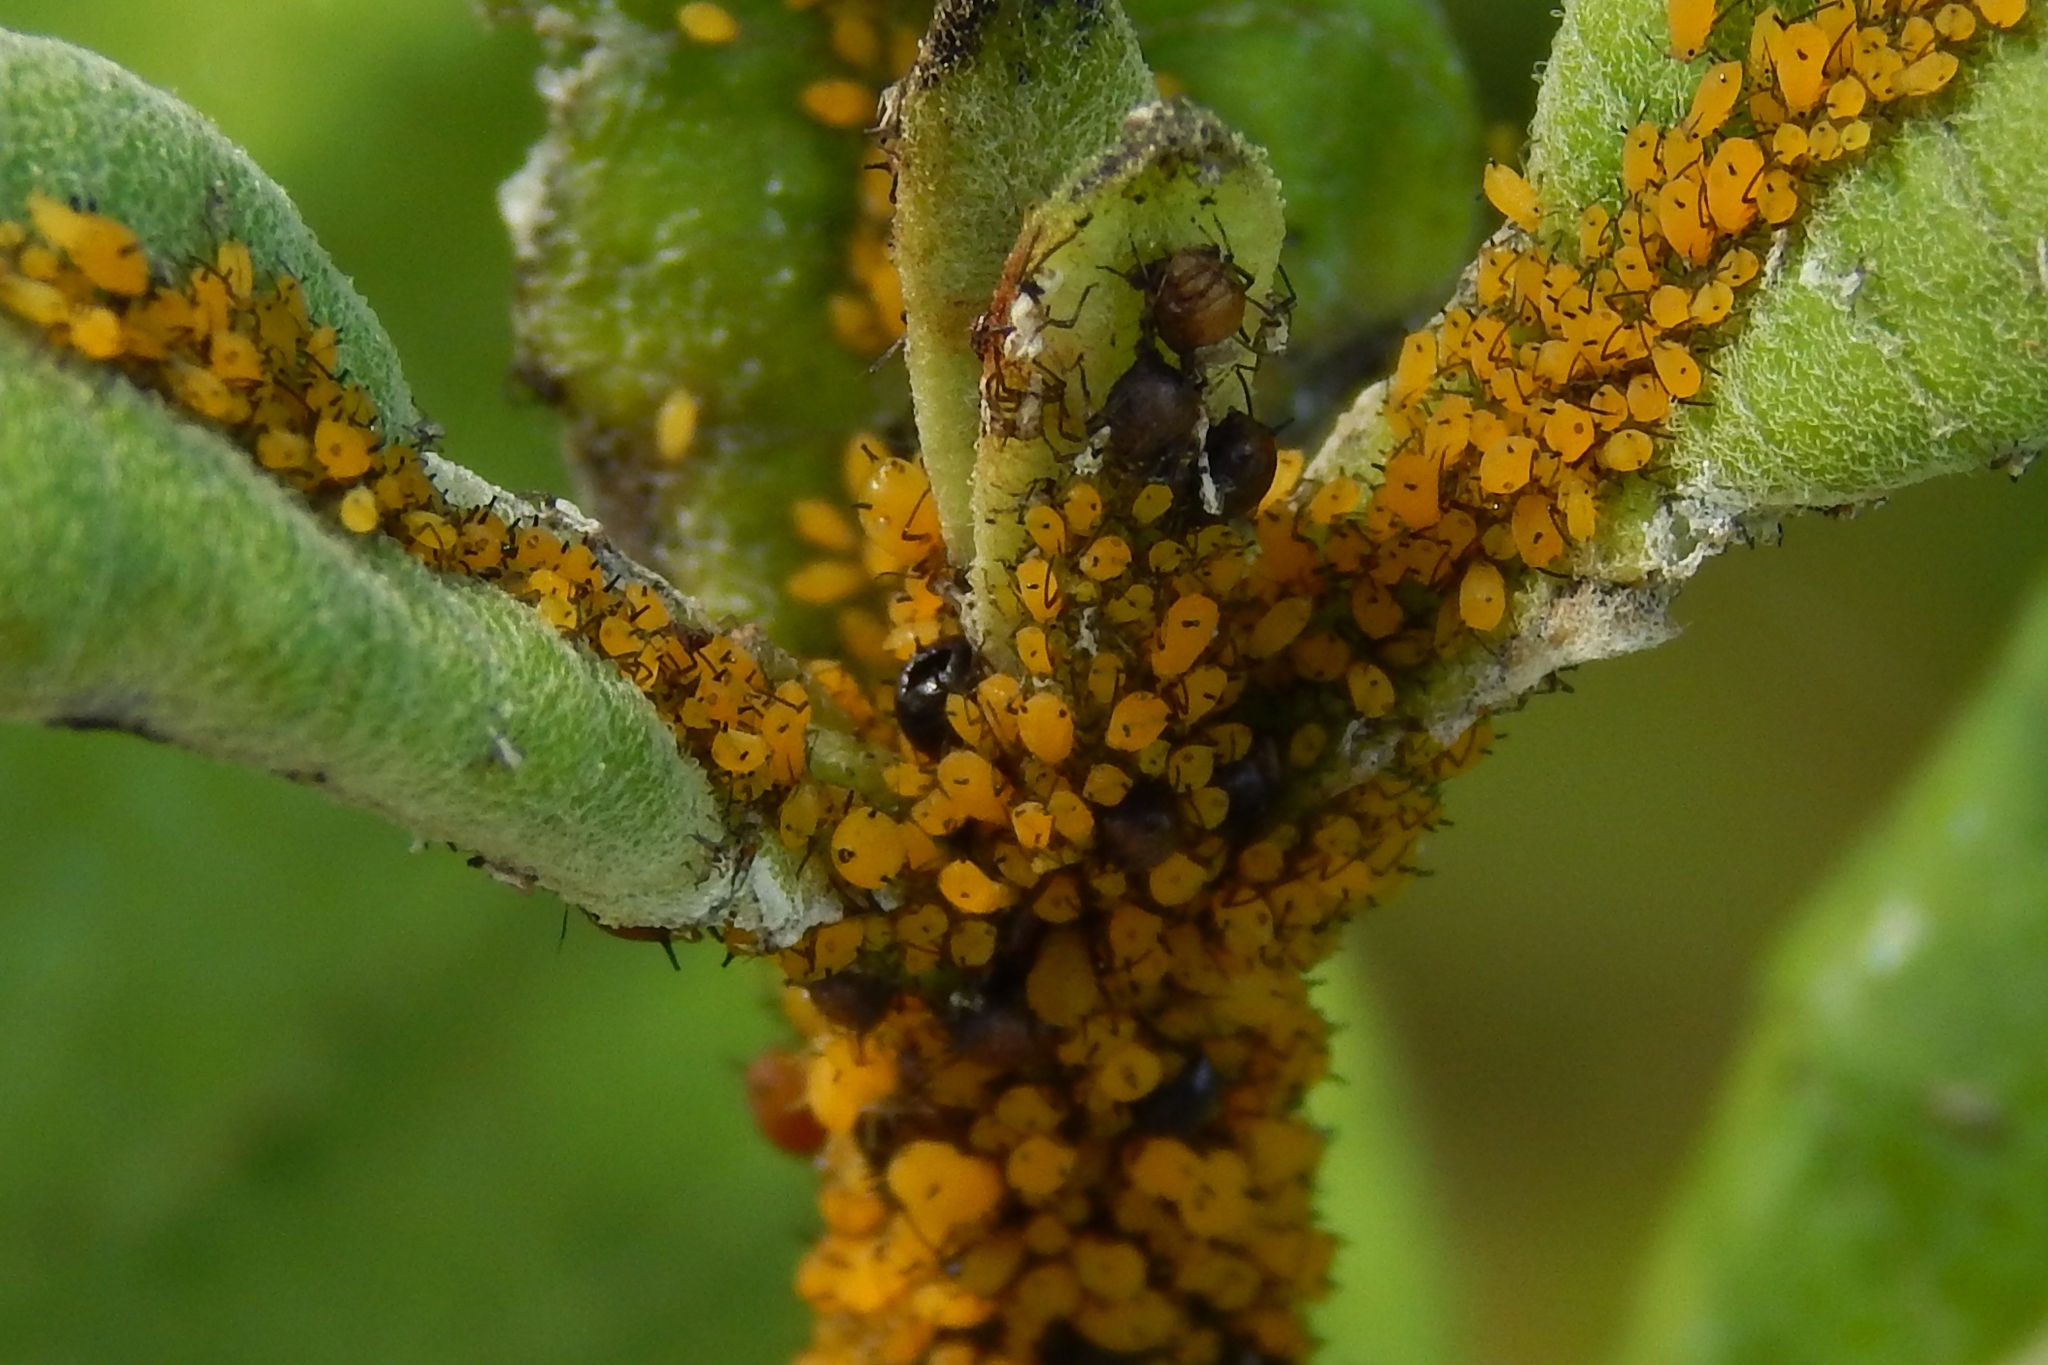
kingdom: Animalia
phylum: Arthropoda
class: Insecta
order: Hemiptera
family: Aphididae
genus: Aphis
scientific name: Aphis nerii
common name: Oleander aphid
